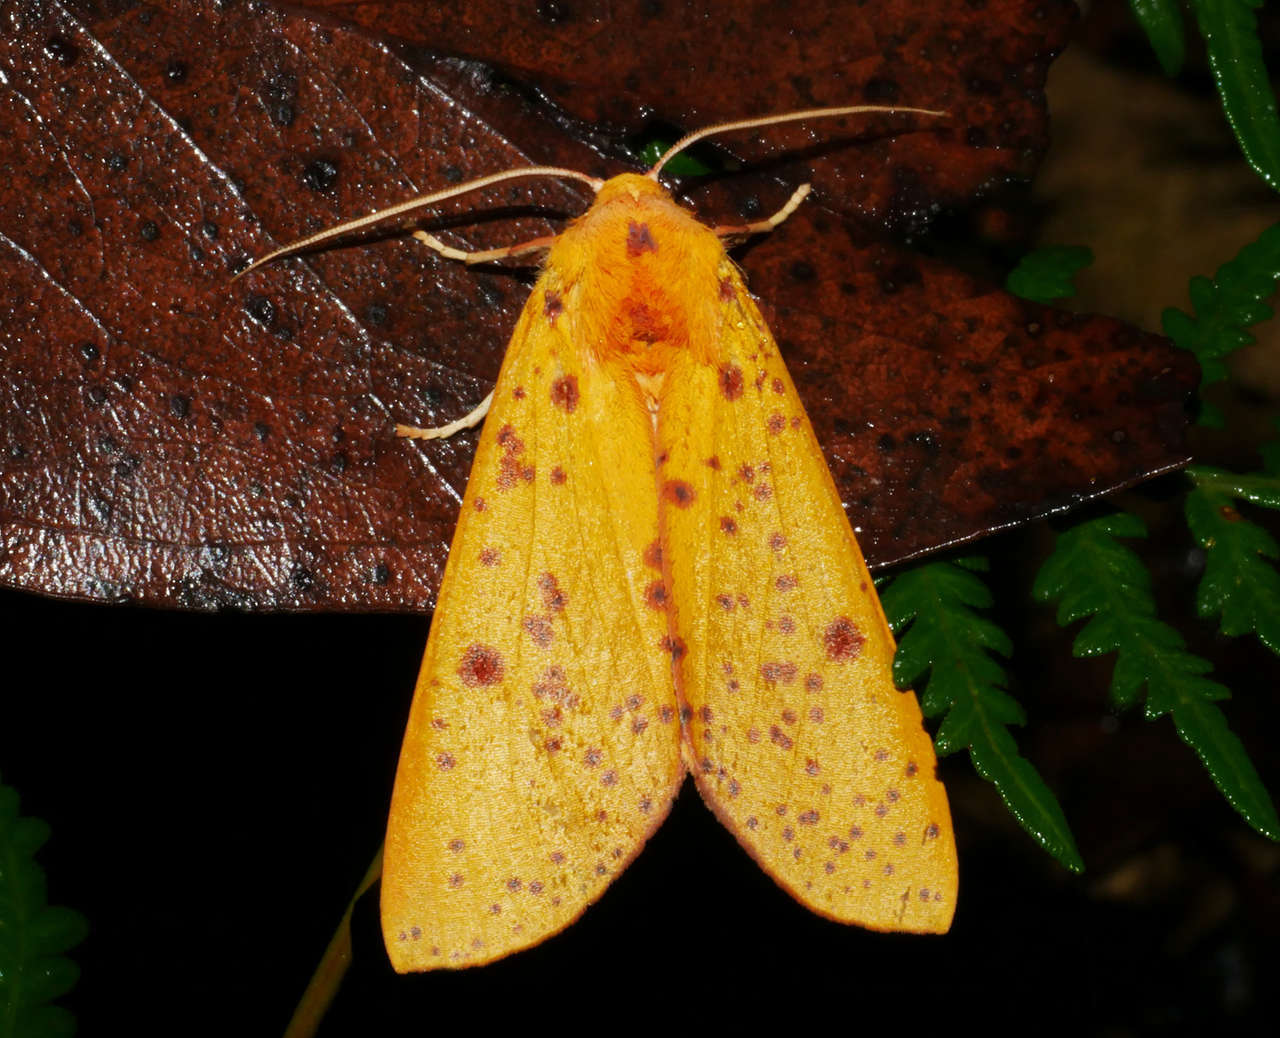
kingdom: Animalia
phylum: Arthropoda
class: Insecta
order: Lepidoptera
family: Geometridae
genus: Plesanemma
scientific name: Plesanemma fucata
